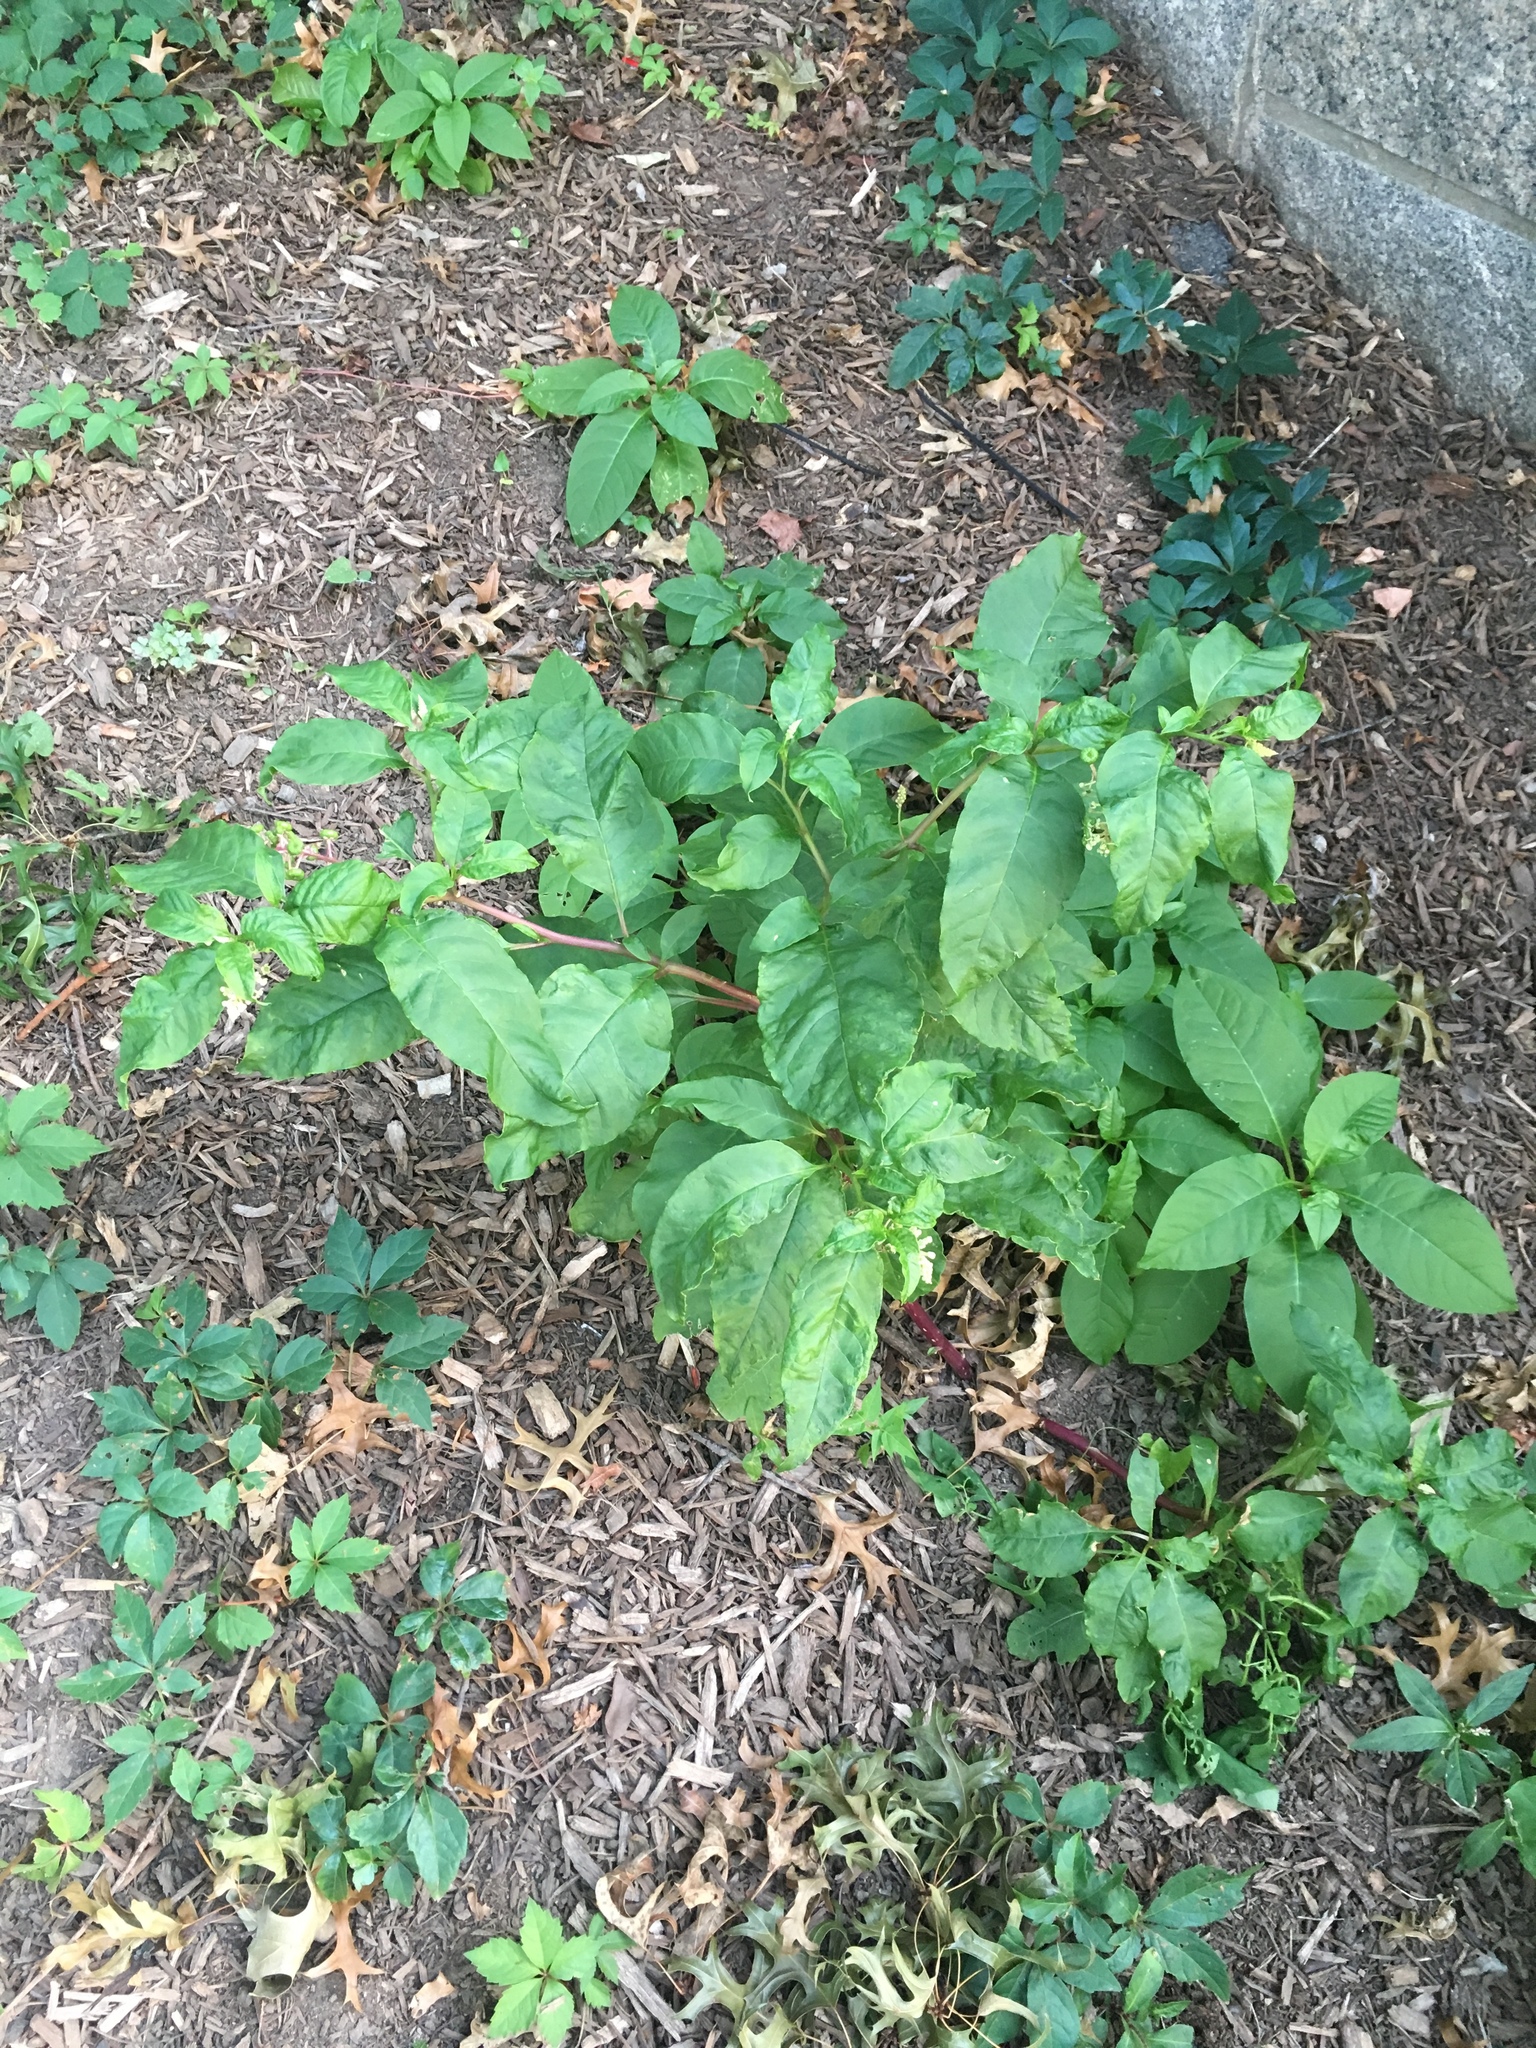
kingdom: Plantae
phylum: Tracheophyta
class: Magnoliopsida
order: Caryophyllales
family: Phytolaccaceae
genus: Phytolacca
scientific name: Phytolacca americana
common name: American pokeweed
